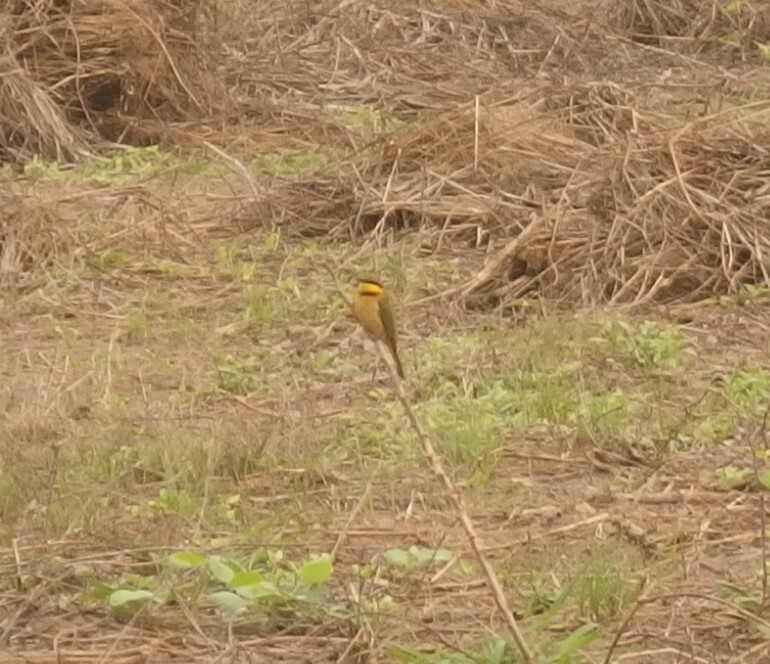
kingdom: Animalia
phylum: Chordata
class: Aves
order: Coraciiformes
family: Meropidae
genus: Merops
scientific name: Merops pusillus
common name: Little bee-eater
